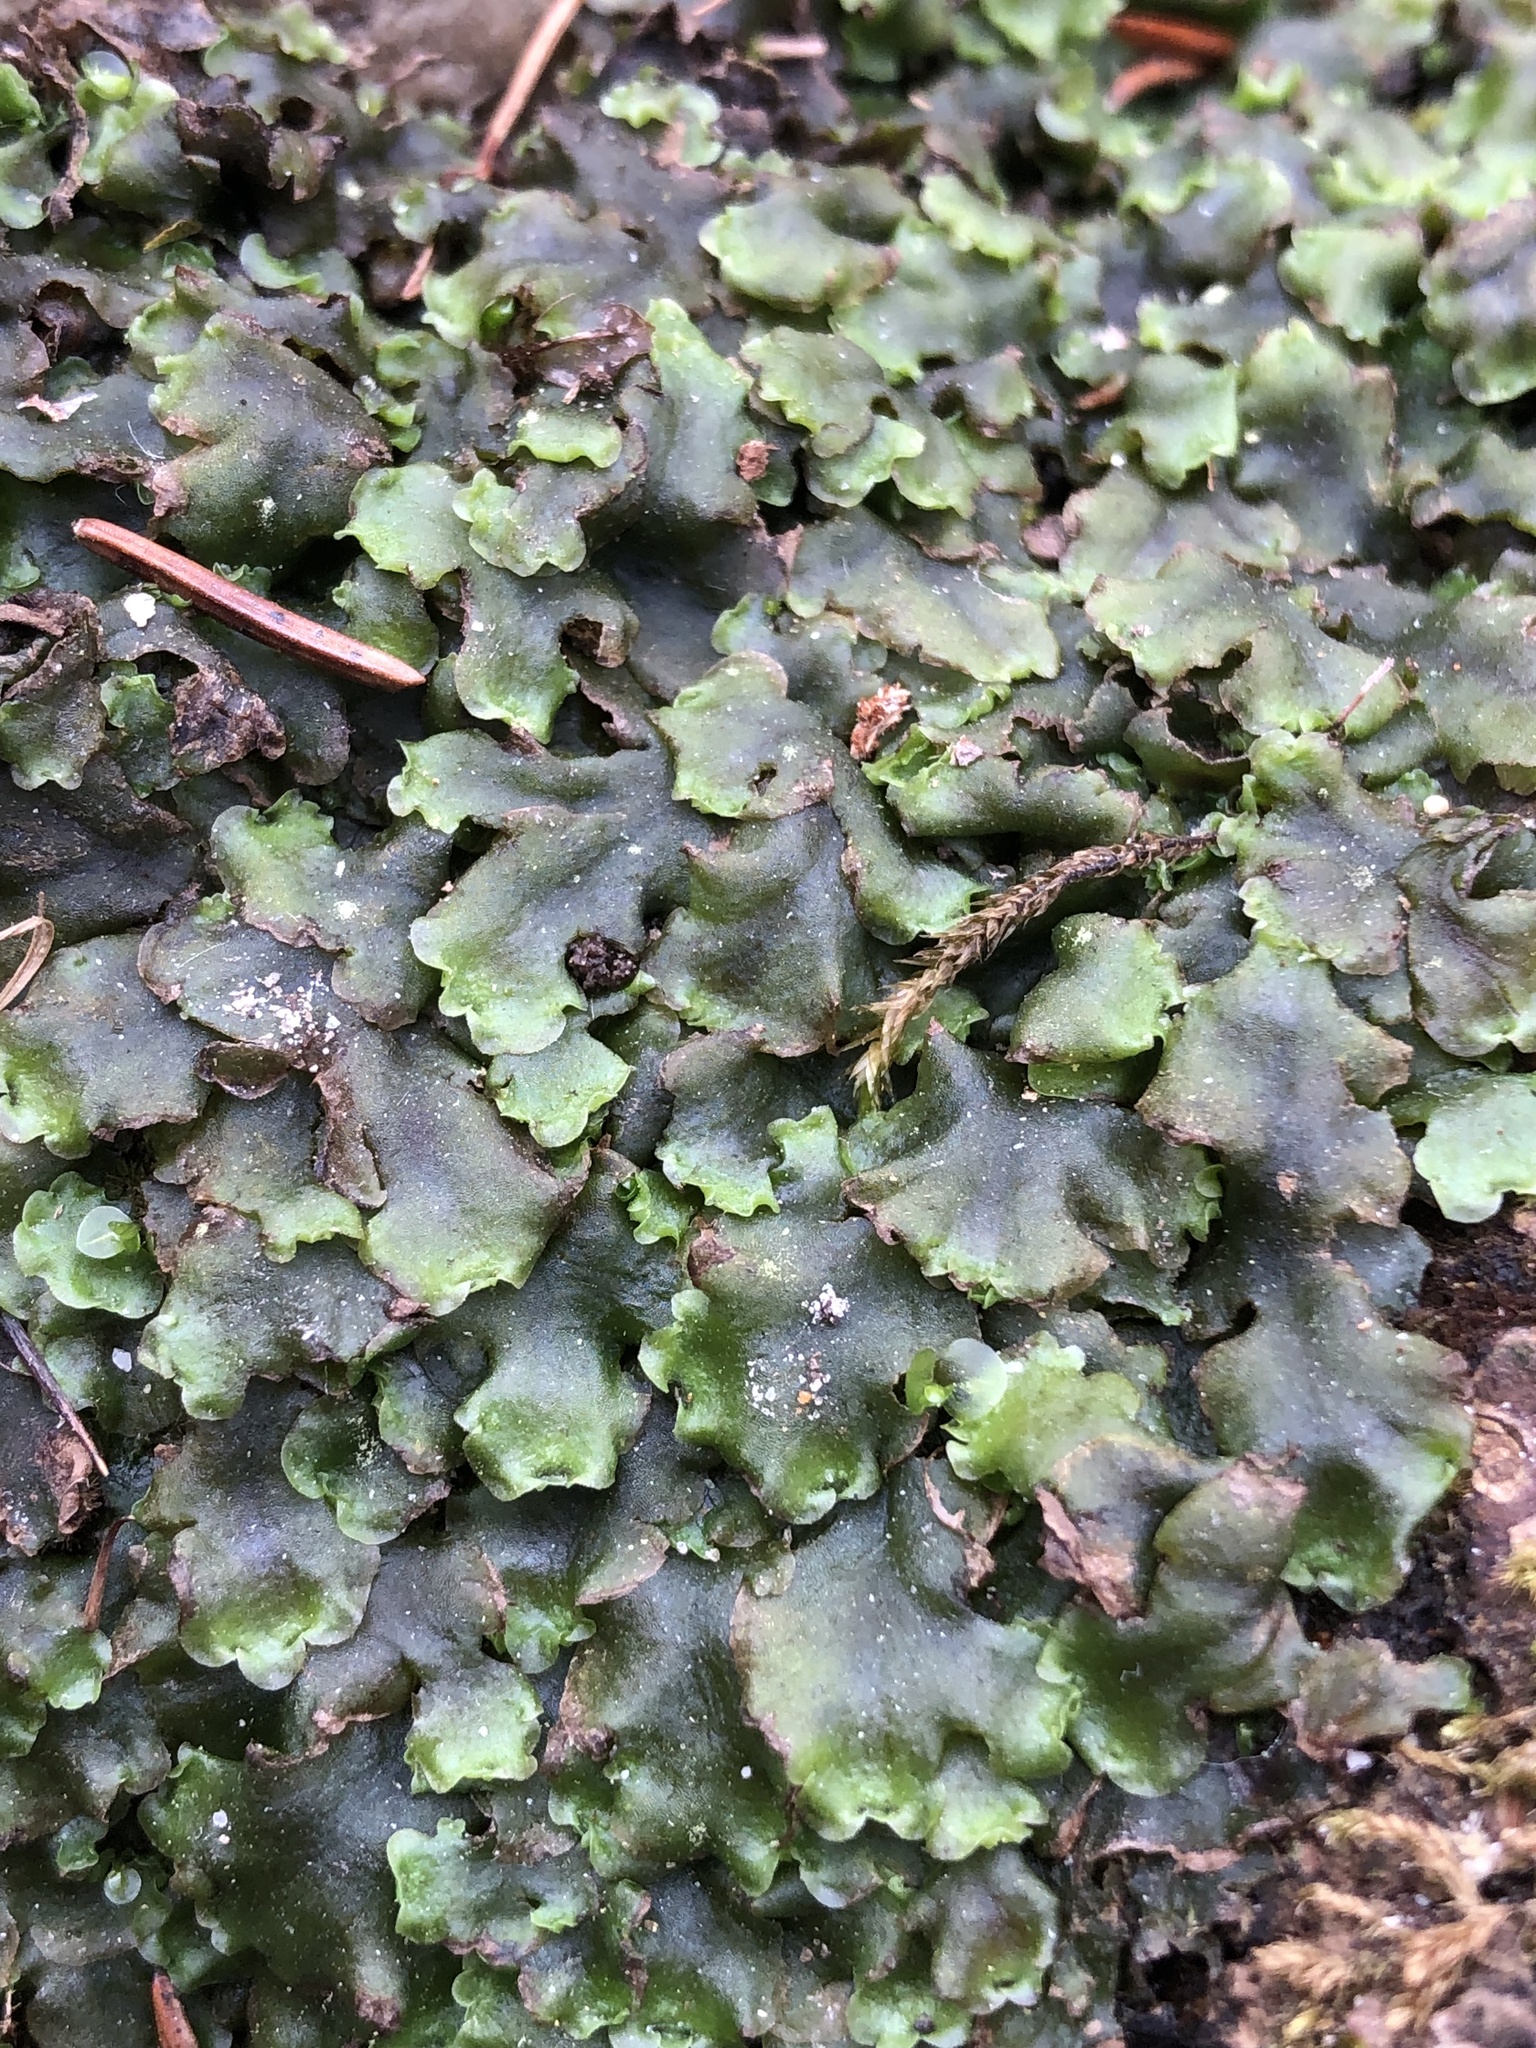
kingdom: Plantae
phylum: Marchantiophyta
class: Jungermanniopsida
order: Pelliales
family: Pelliaceae
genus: Pellia
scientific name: Pellia epiphylla
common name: Common pellia
